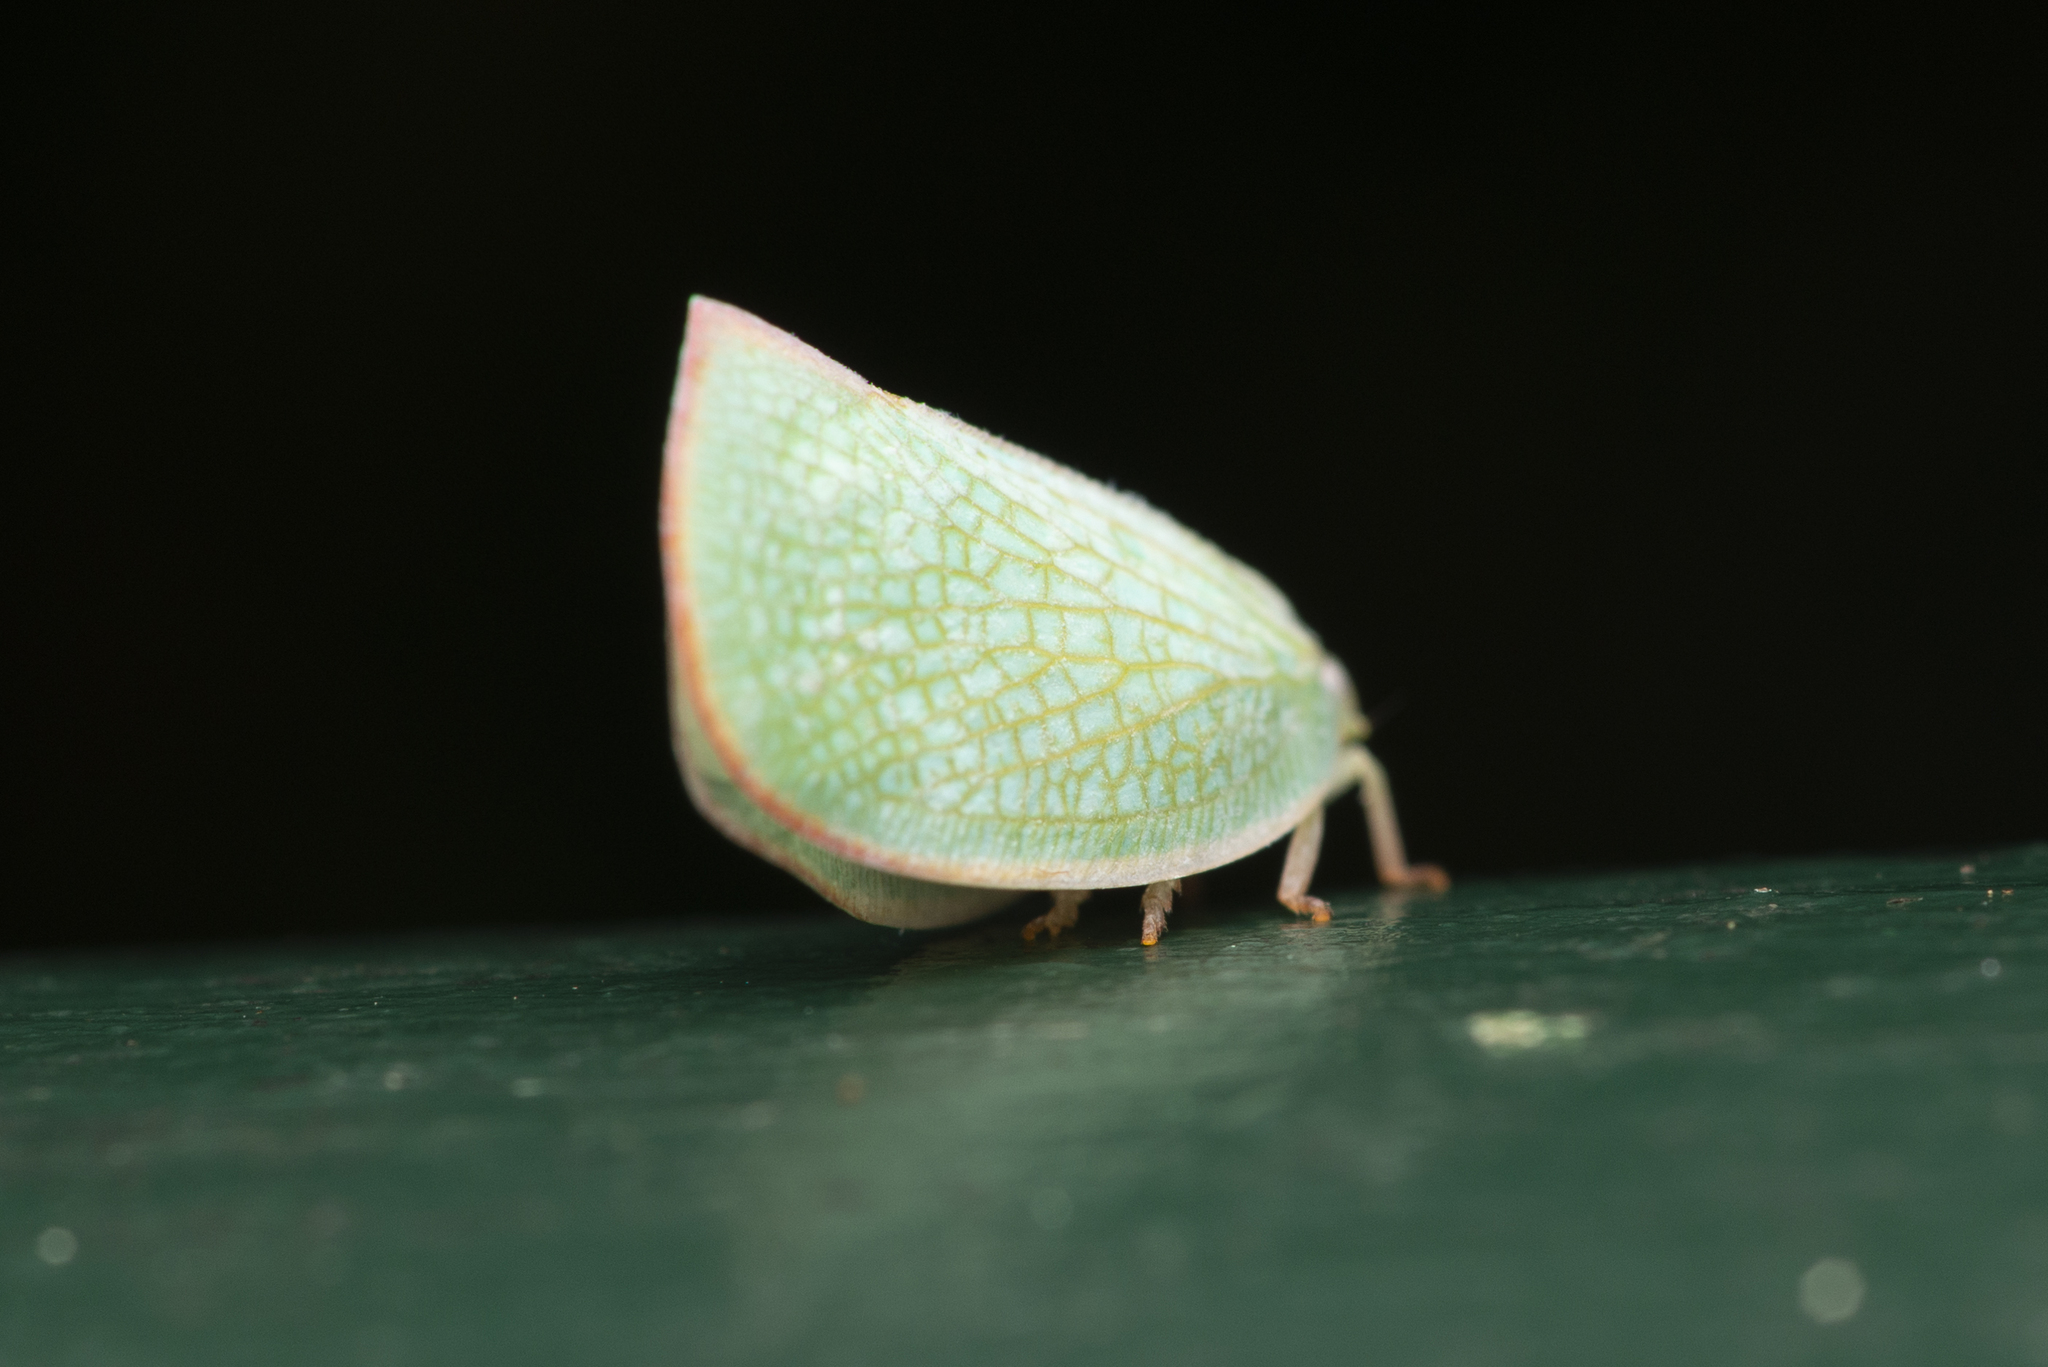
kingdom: Animalia
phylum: Arthropoda
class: Insecta
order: Hemiptera
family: Flatidae
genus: Geisha
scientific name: Geisha distinctissima
